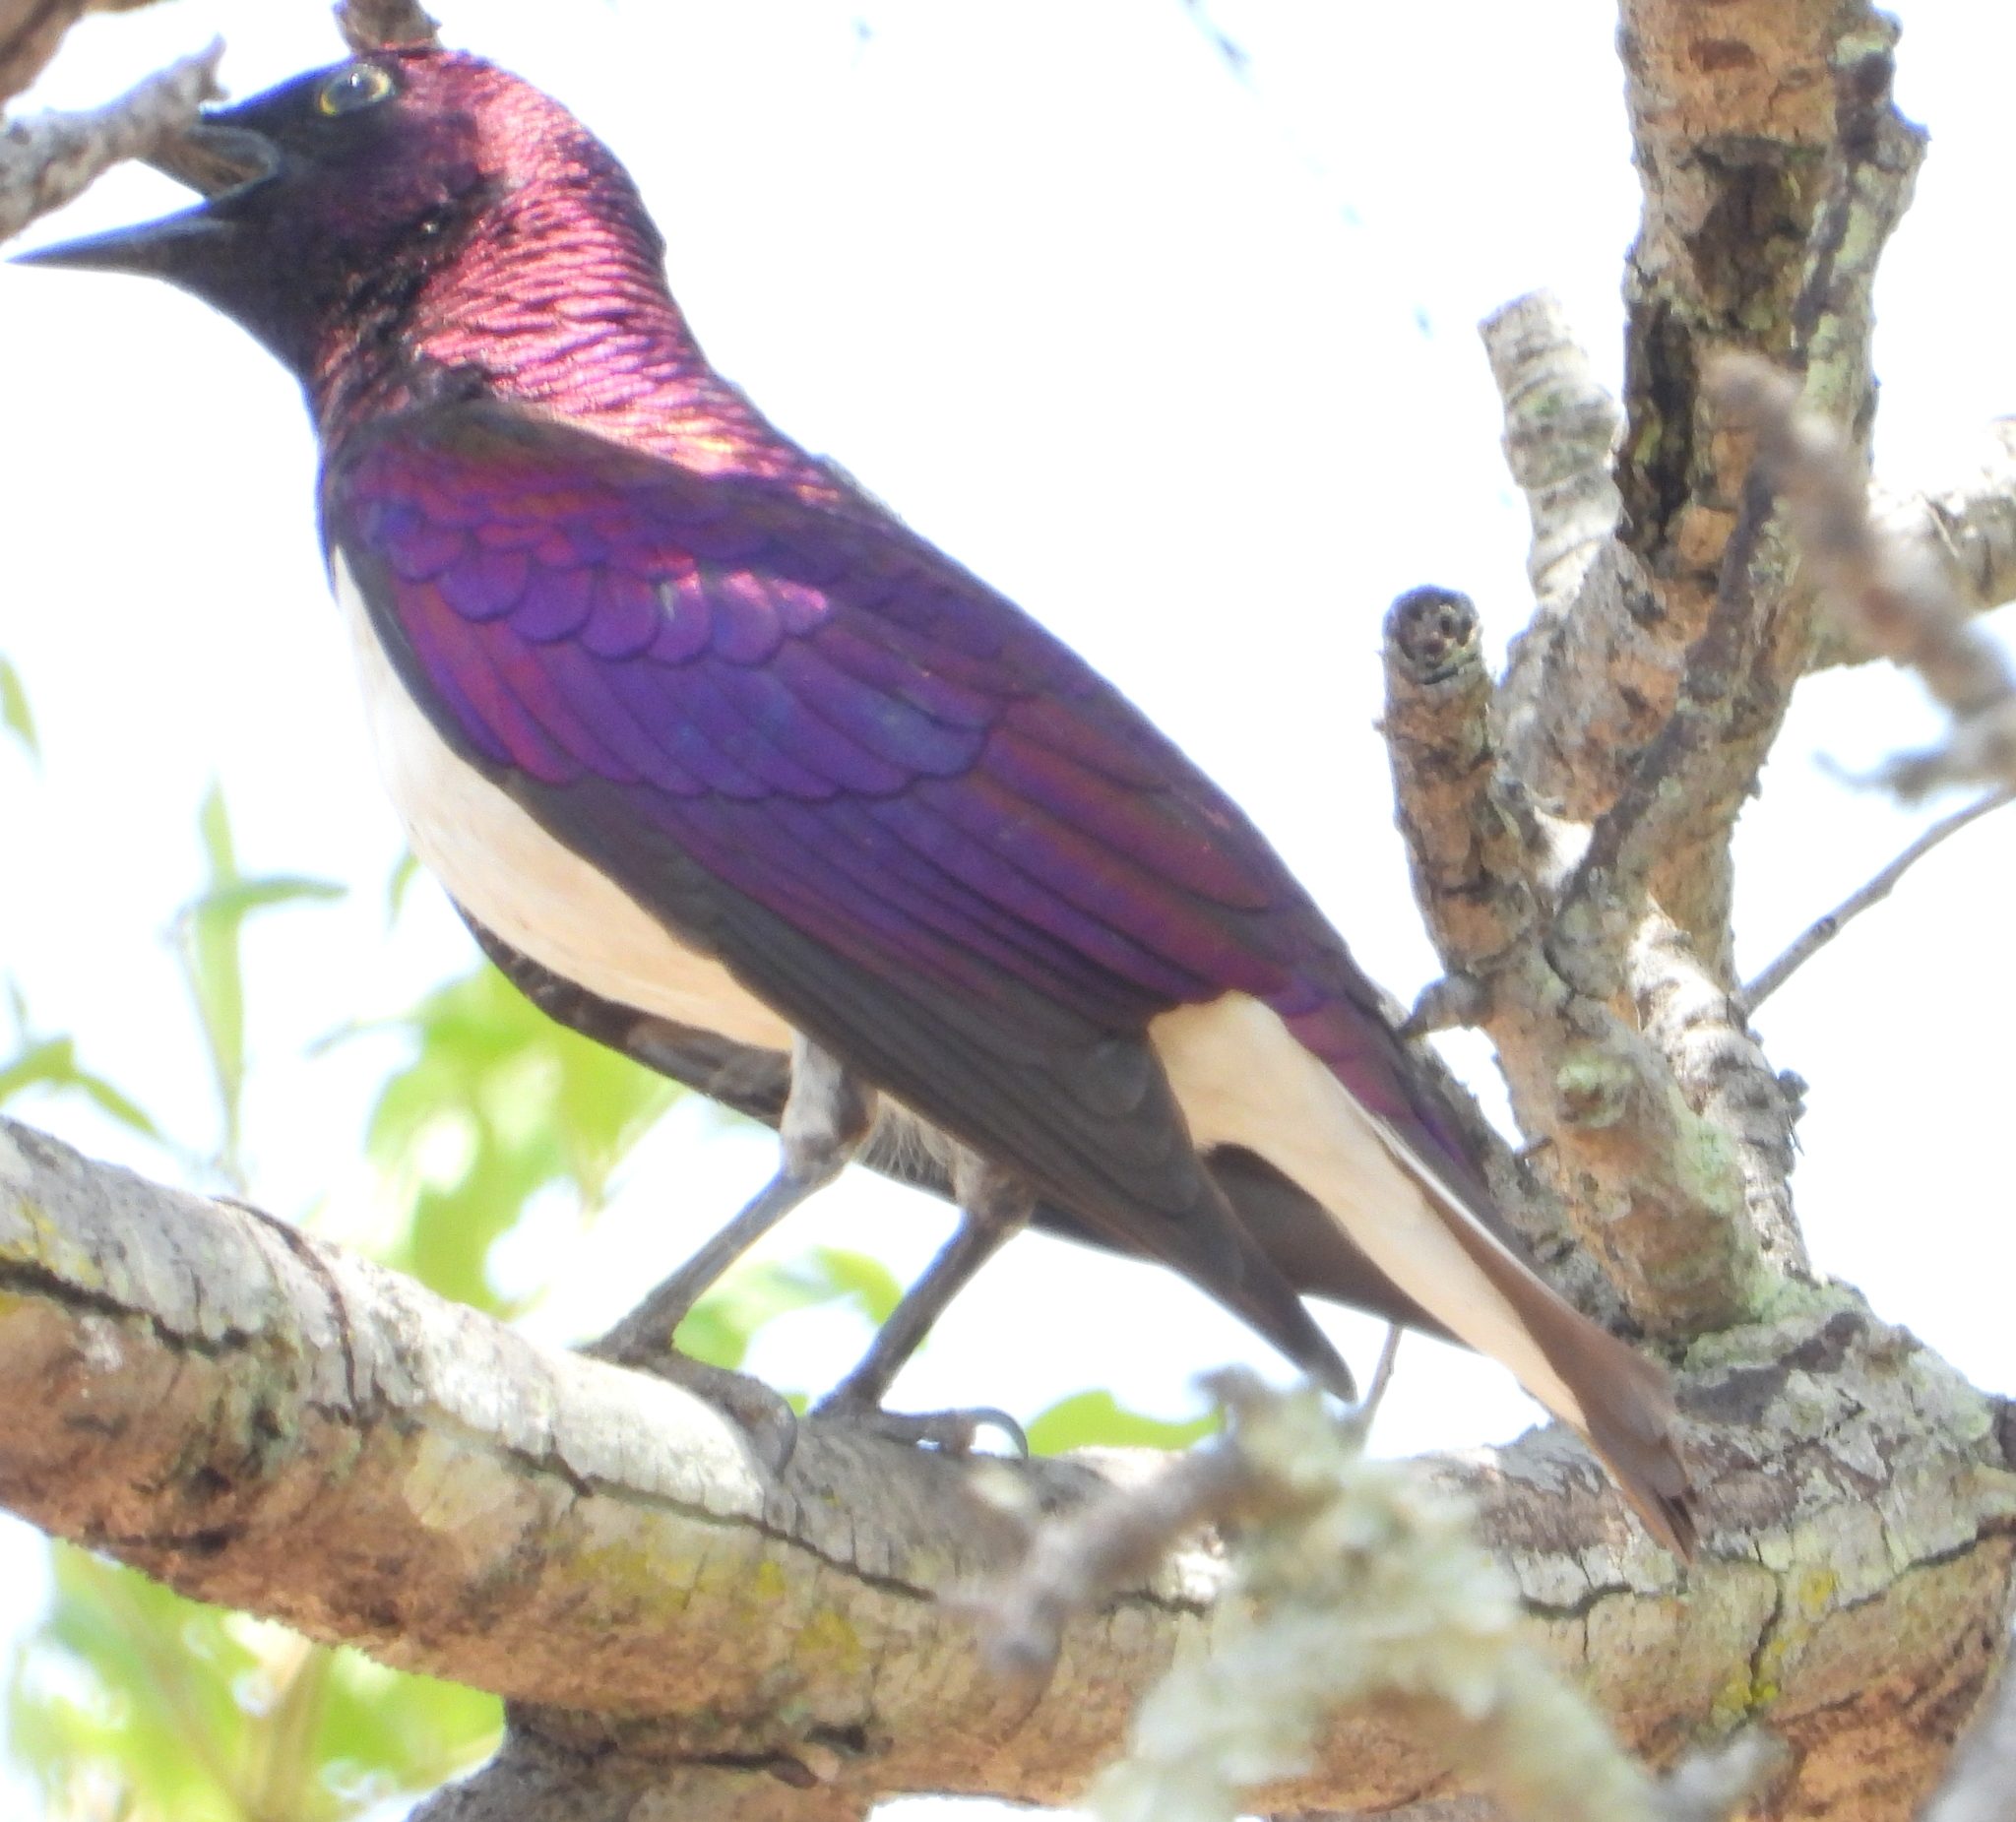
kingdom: Animalia
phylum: Chordata
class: Aves
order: Passeriformes
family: Sturnidae
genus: Cinnyricinclus
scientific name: Cinnyricinclus leucogaster
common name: Violet-backed starling
